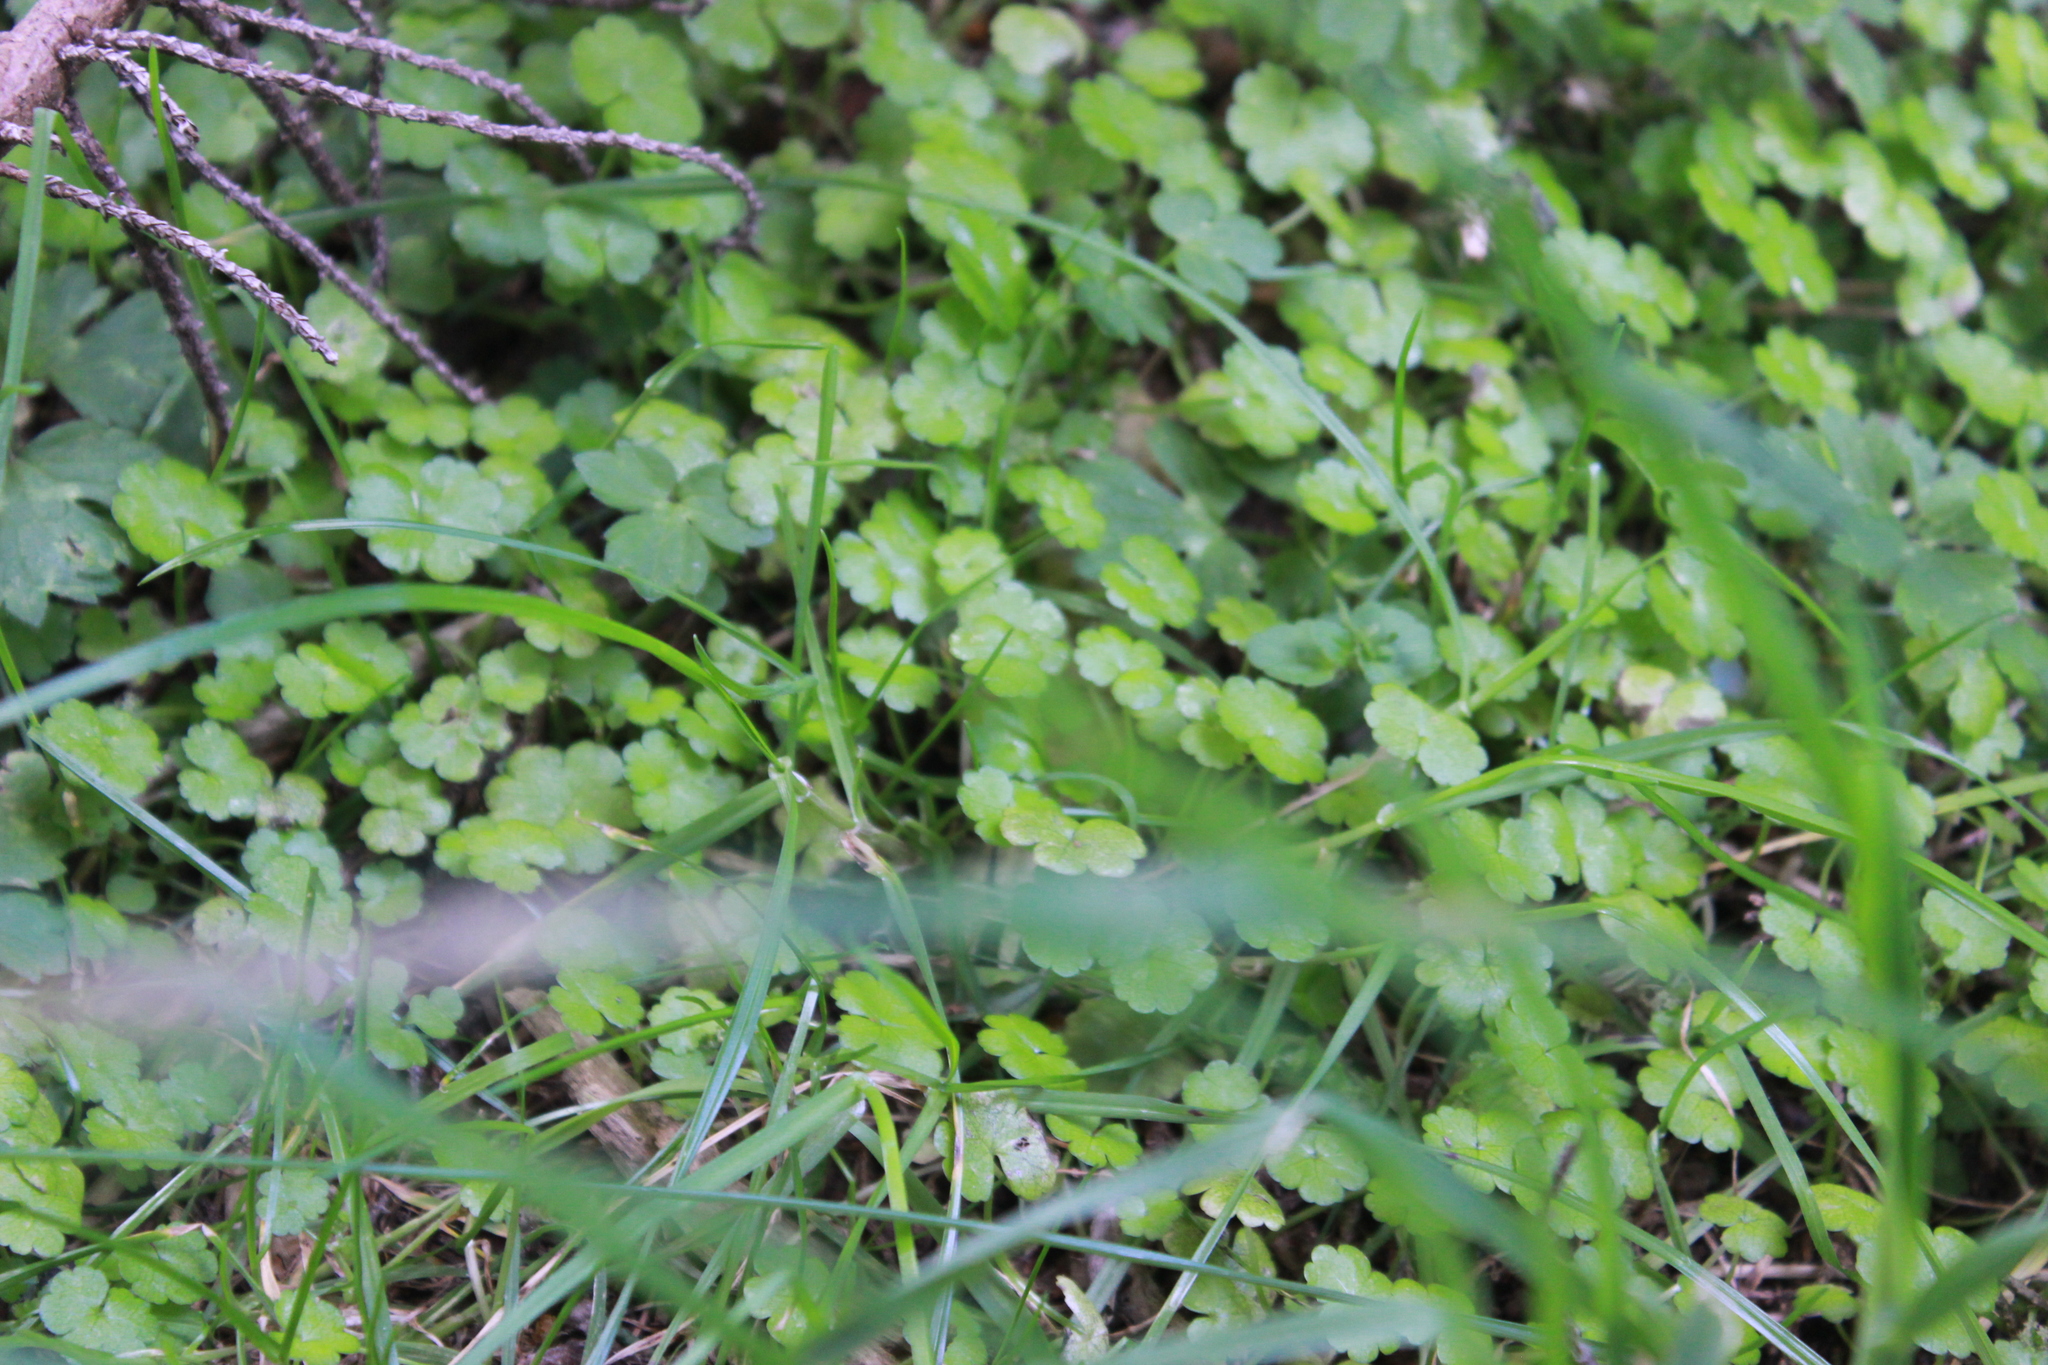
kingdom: Plantae
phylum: Tracheophyta
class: Magnoliopsida
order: Apiales
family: Araliaceae
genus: Hydrocotyle
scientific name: Hydrocotyle heteromeria
